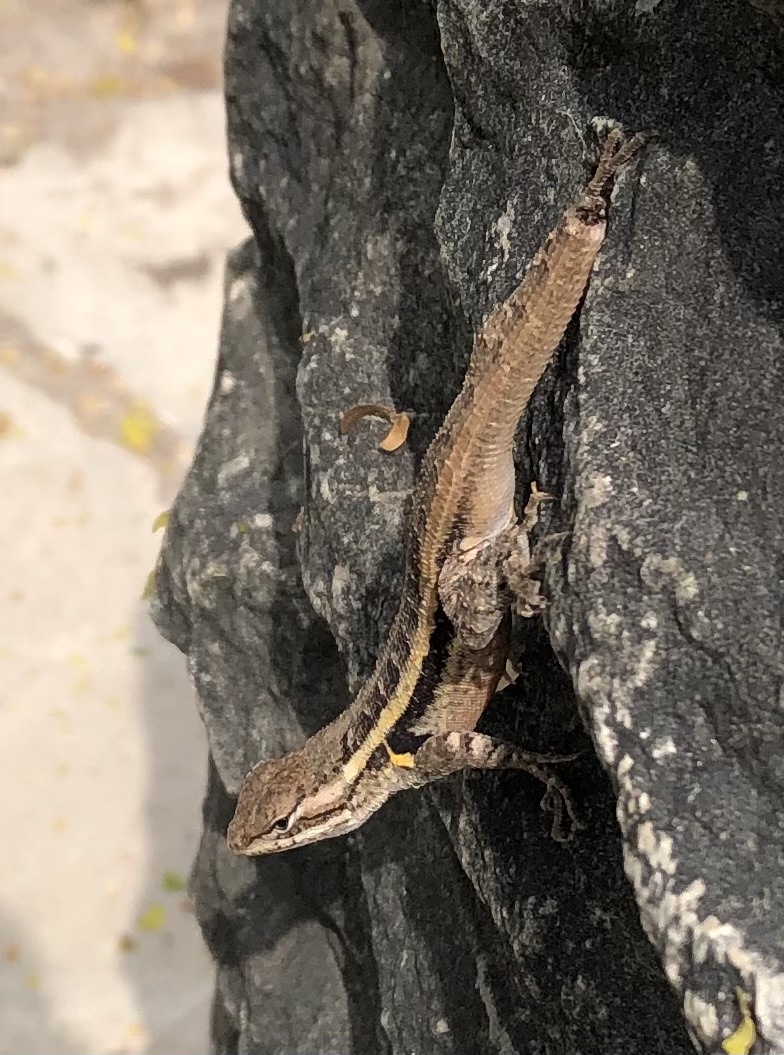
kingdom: Animalia
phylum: Chordata
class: Squamata
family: Phrynosomatidae
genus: Sceloporus
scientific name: Sceloporus variabilis
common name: Rosebelly lizard
